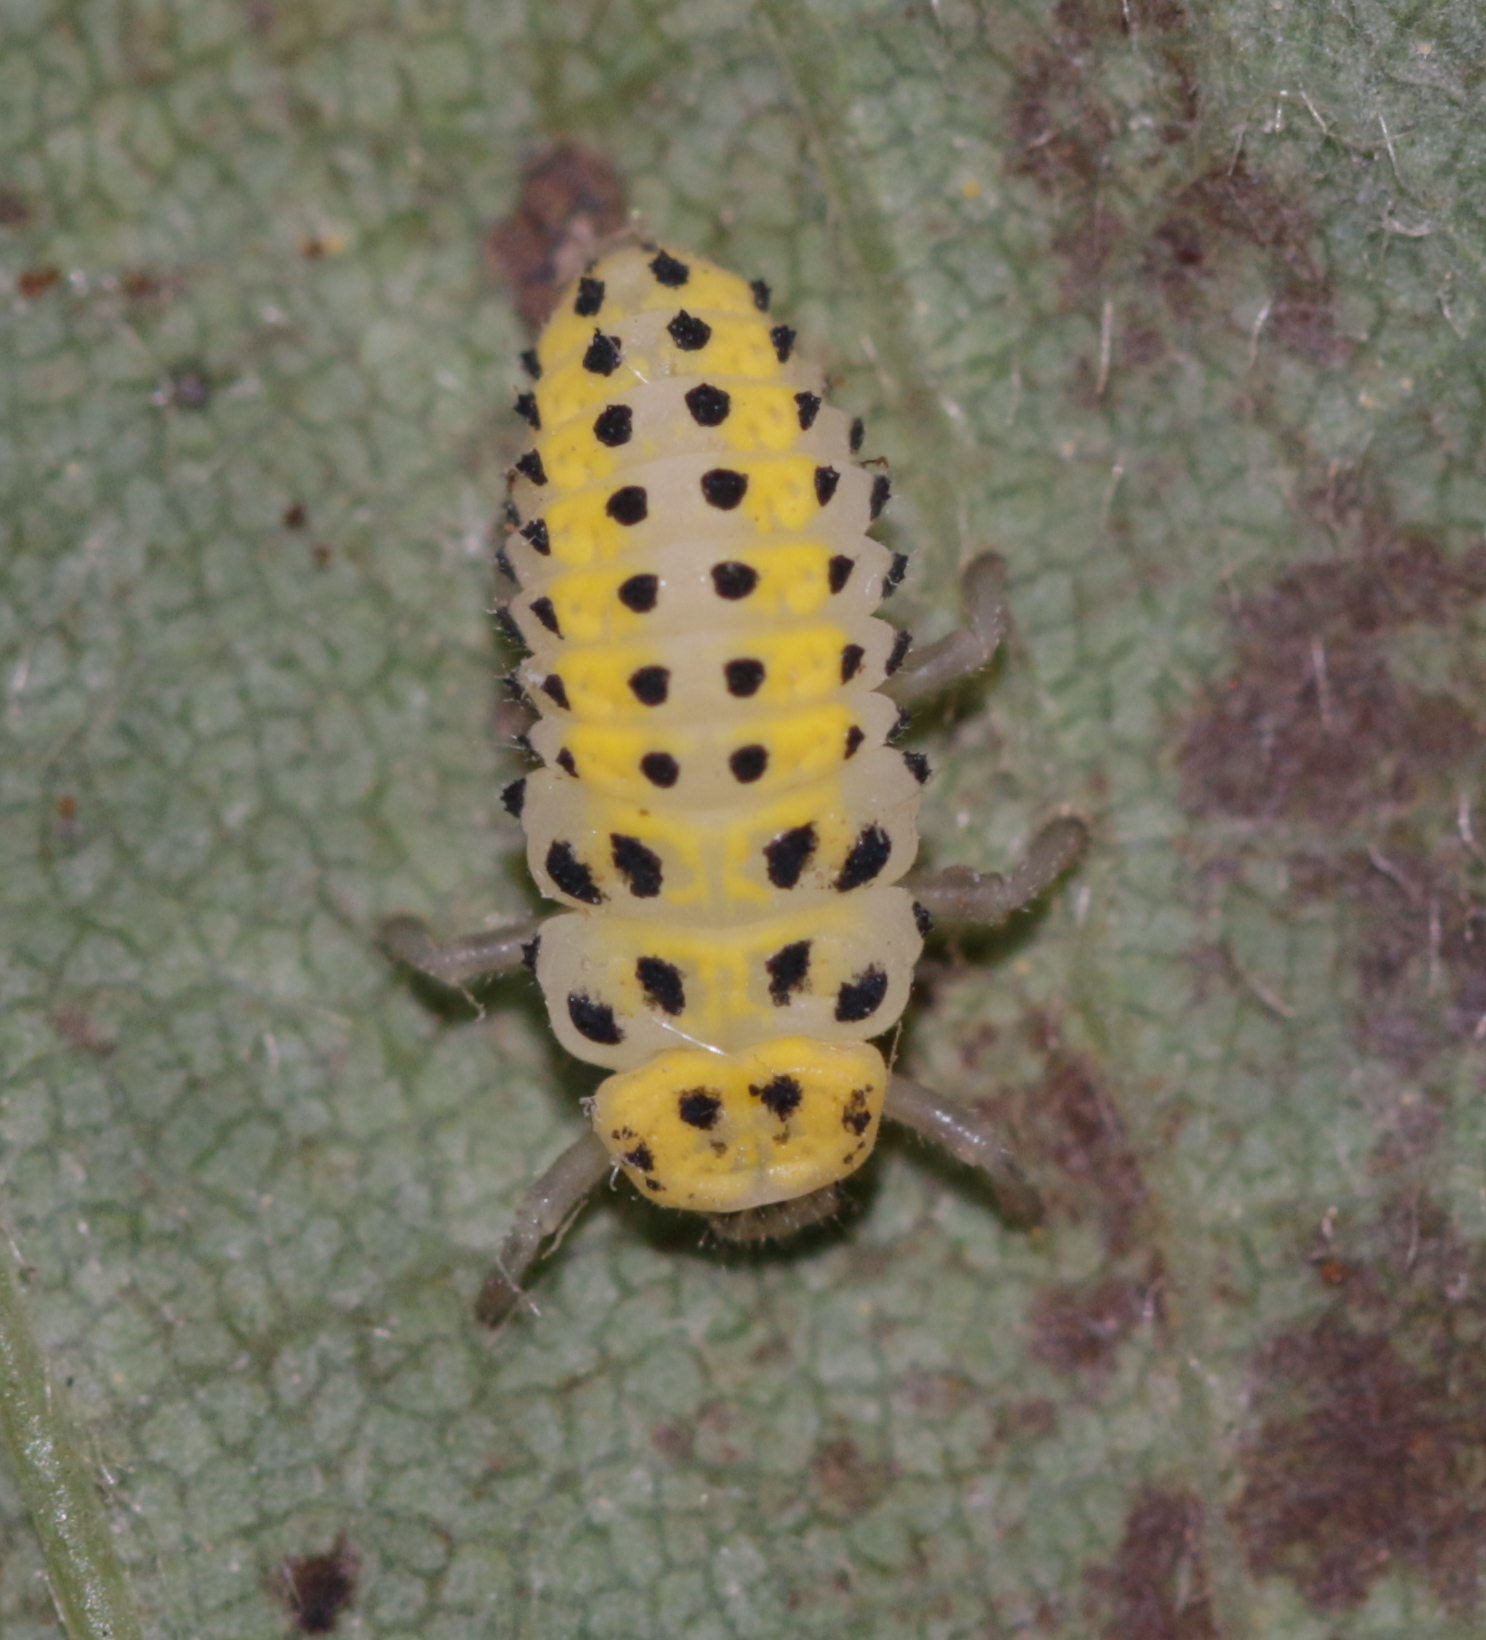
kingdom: Animalia
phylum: Arthropoda
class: Insecta
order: Coleoptera
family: Coccinellidae
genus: Halyzia
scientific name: Halyzia sedecimguttata
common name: Orange ladybird
